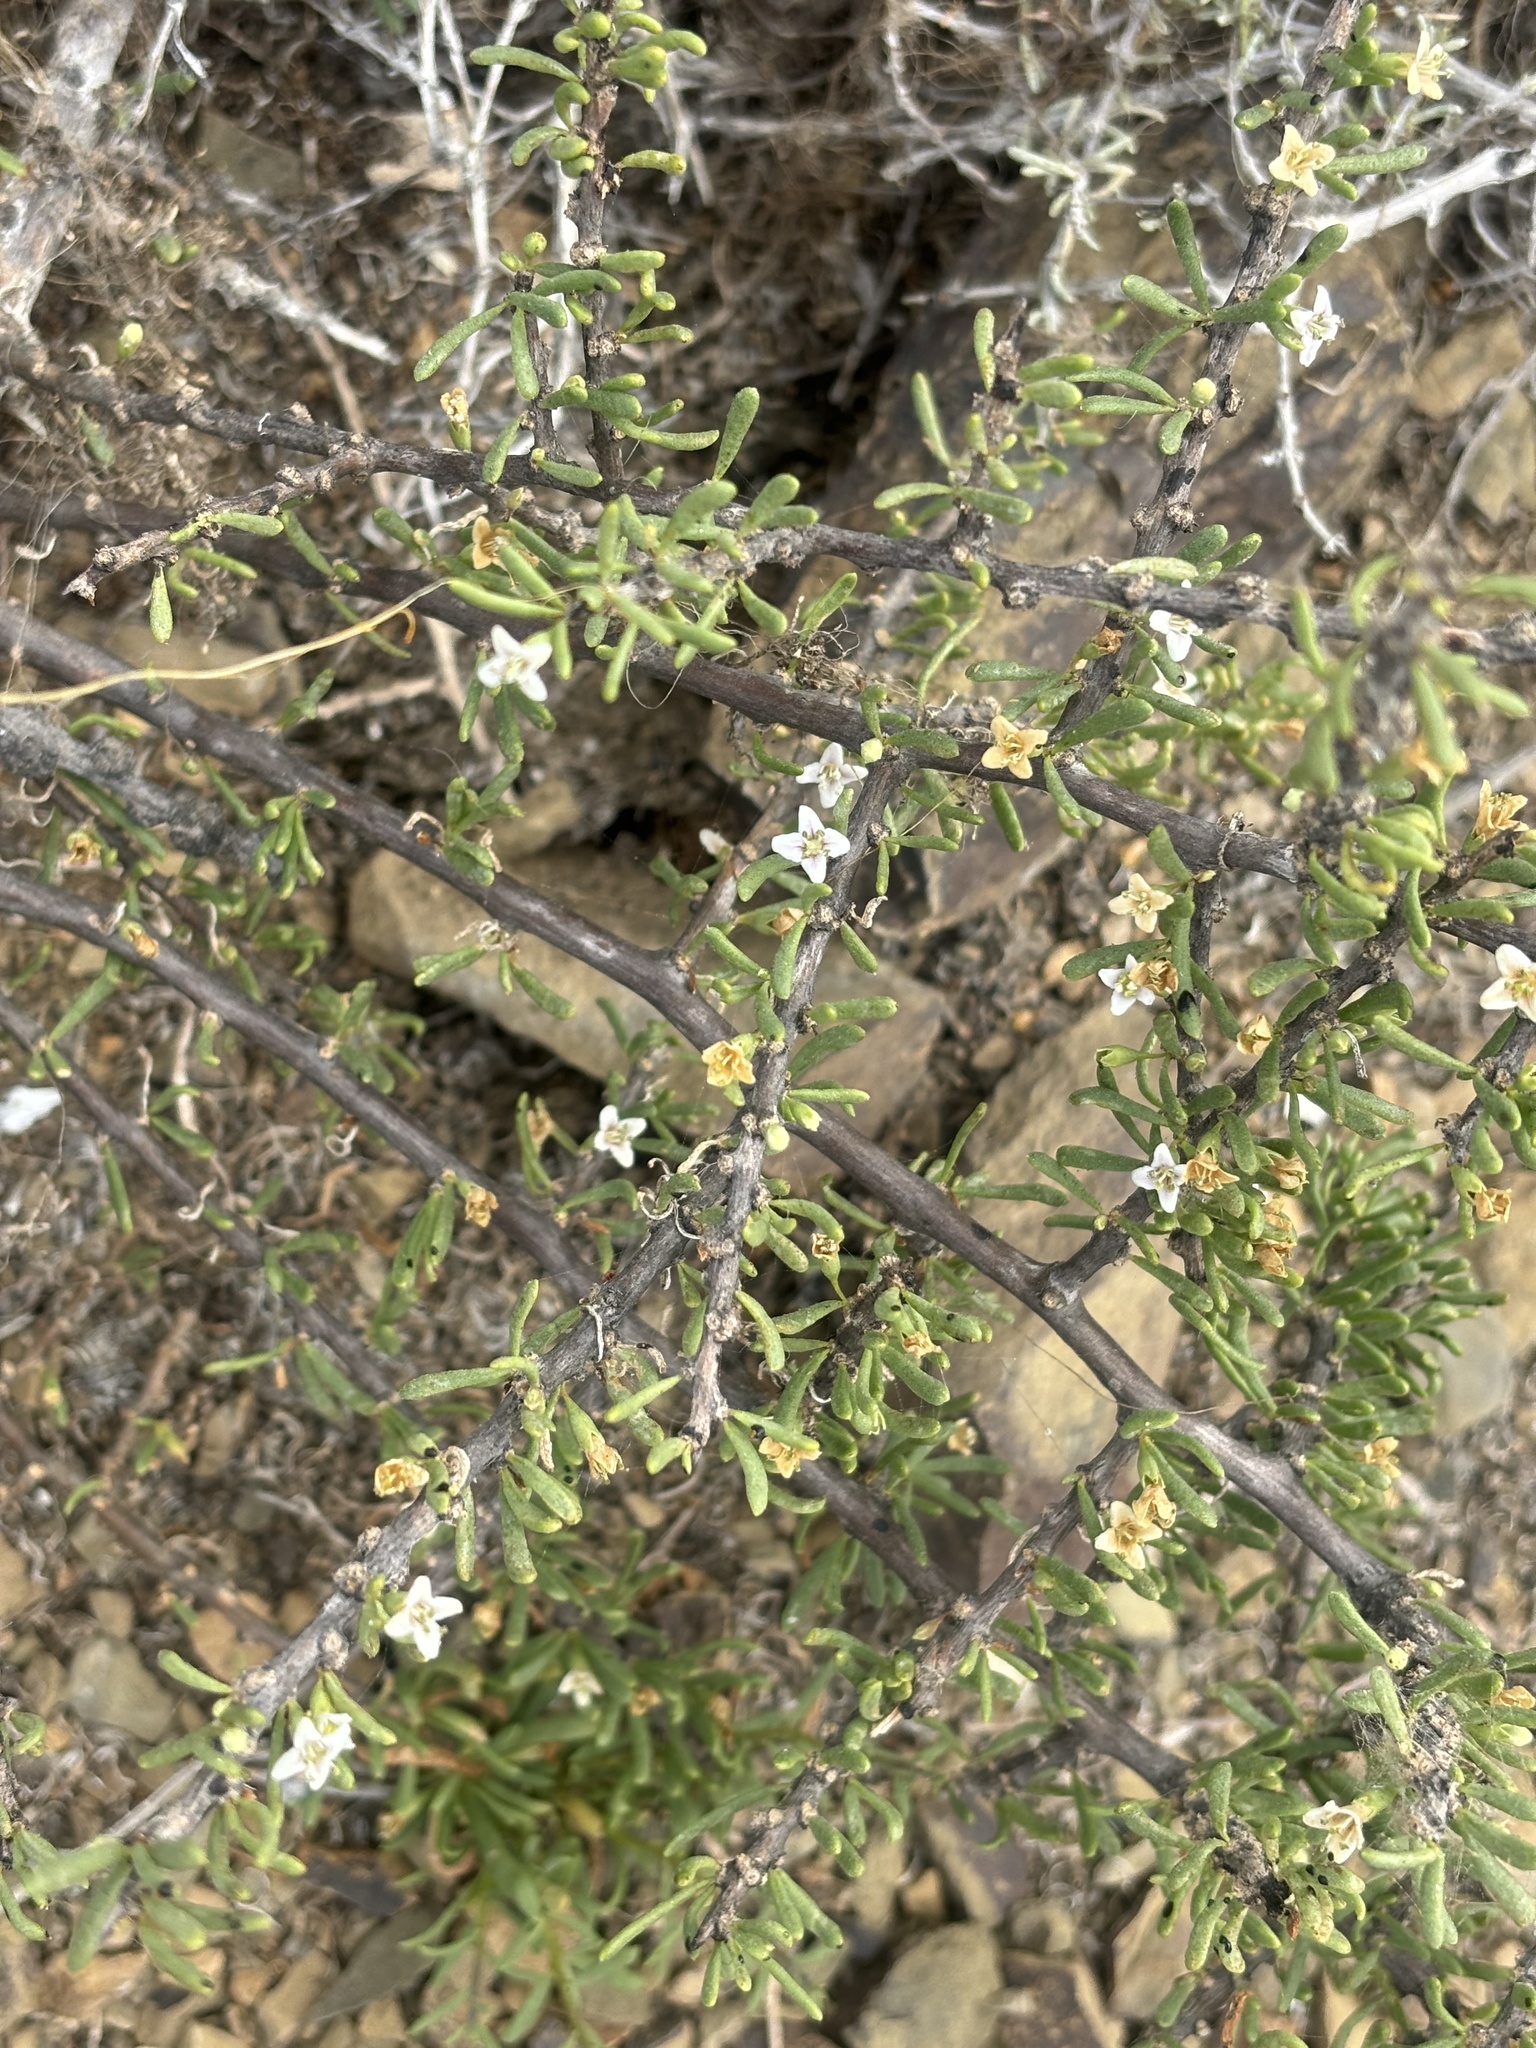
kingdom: Plantae
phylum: Tracheophyta
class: Magnoliopsida
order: Solanales
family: Solanaceae
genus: Lycium
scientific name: Lycium californicum
